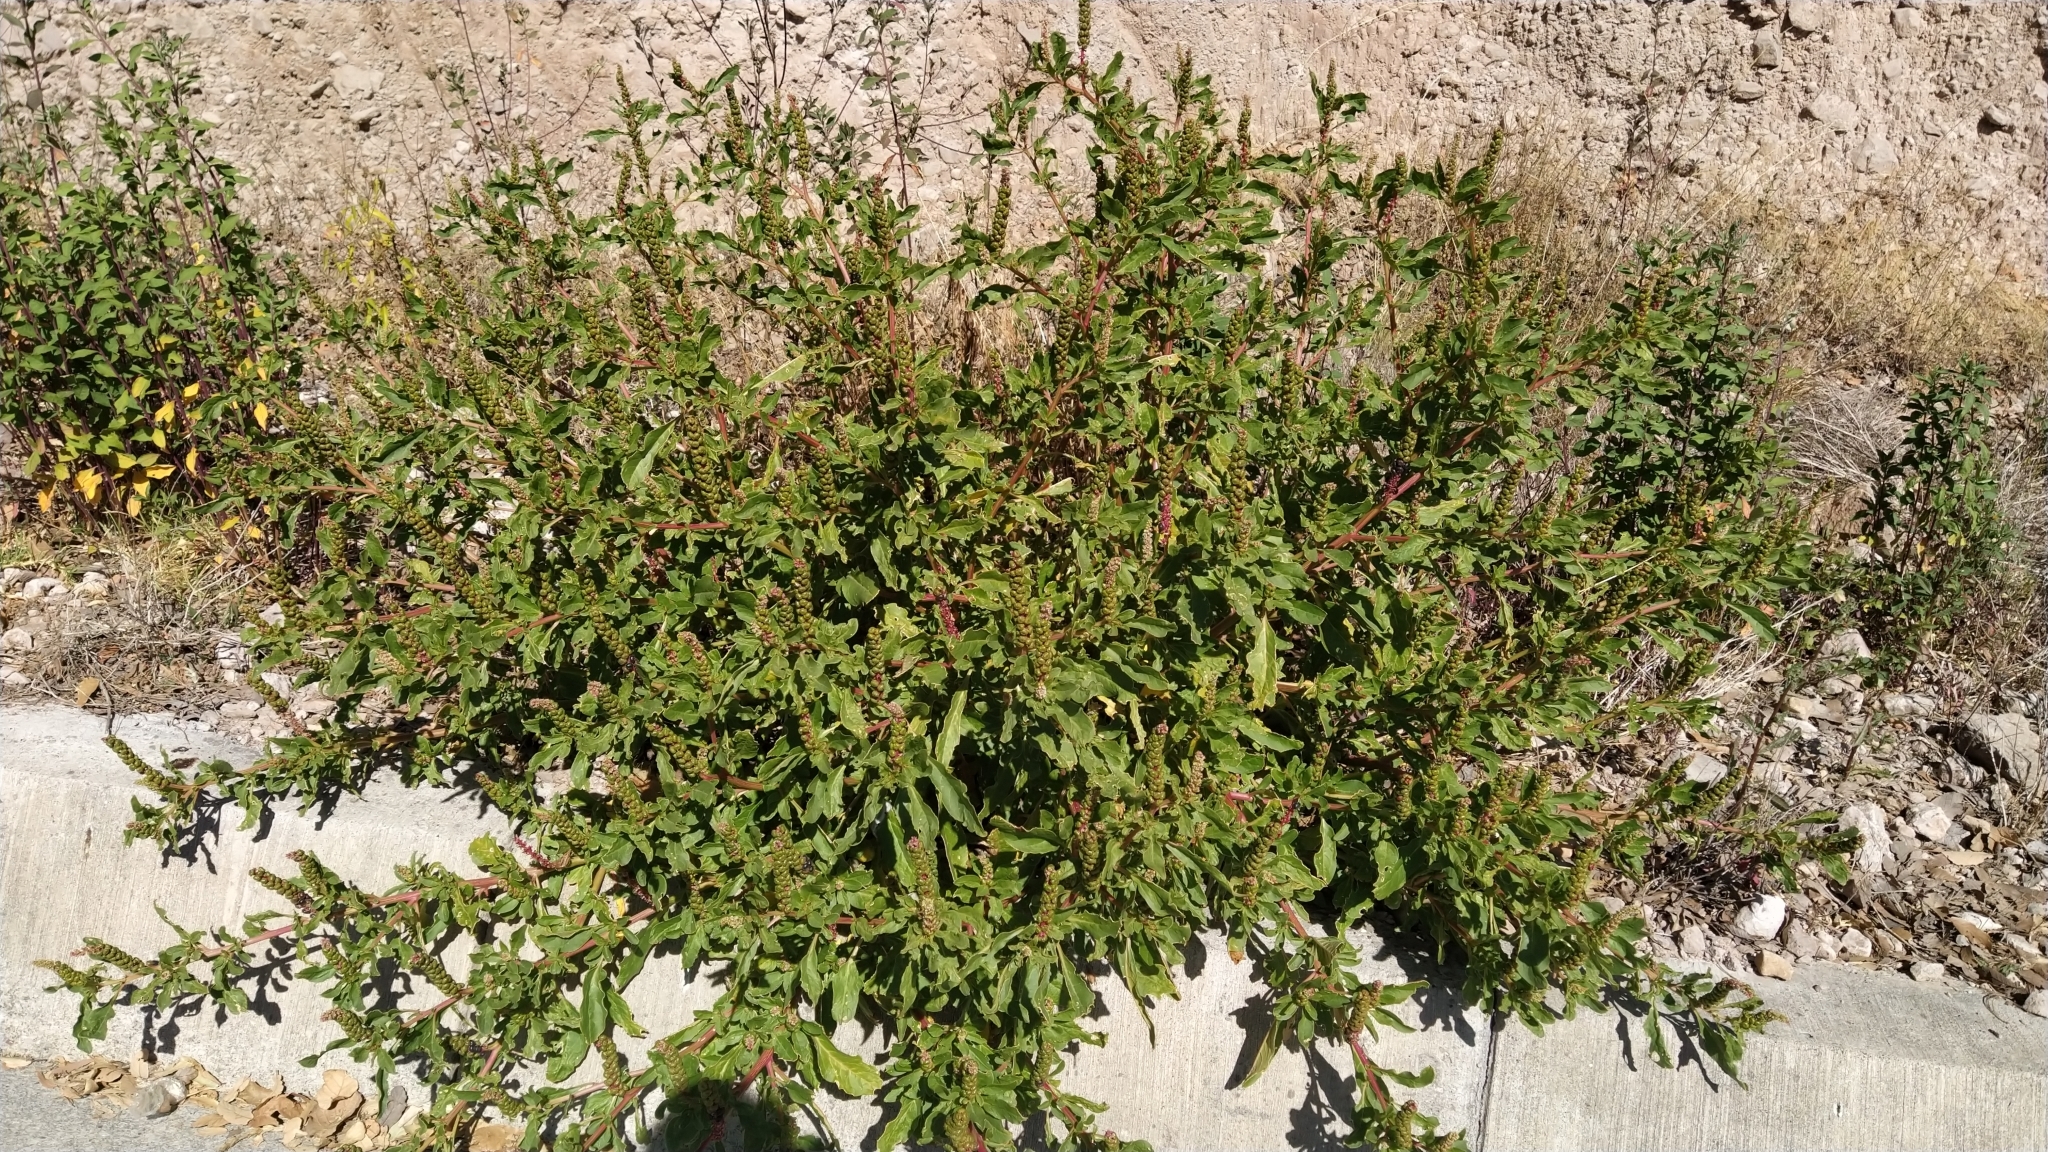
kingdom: Plantae
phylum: Tracheophyta
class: Magnoliopsida
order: Caryophyllales
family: Phytolaccaceae
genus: Phytolacca
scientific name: Phytolacca icosandra
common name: Button pokeweed
